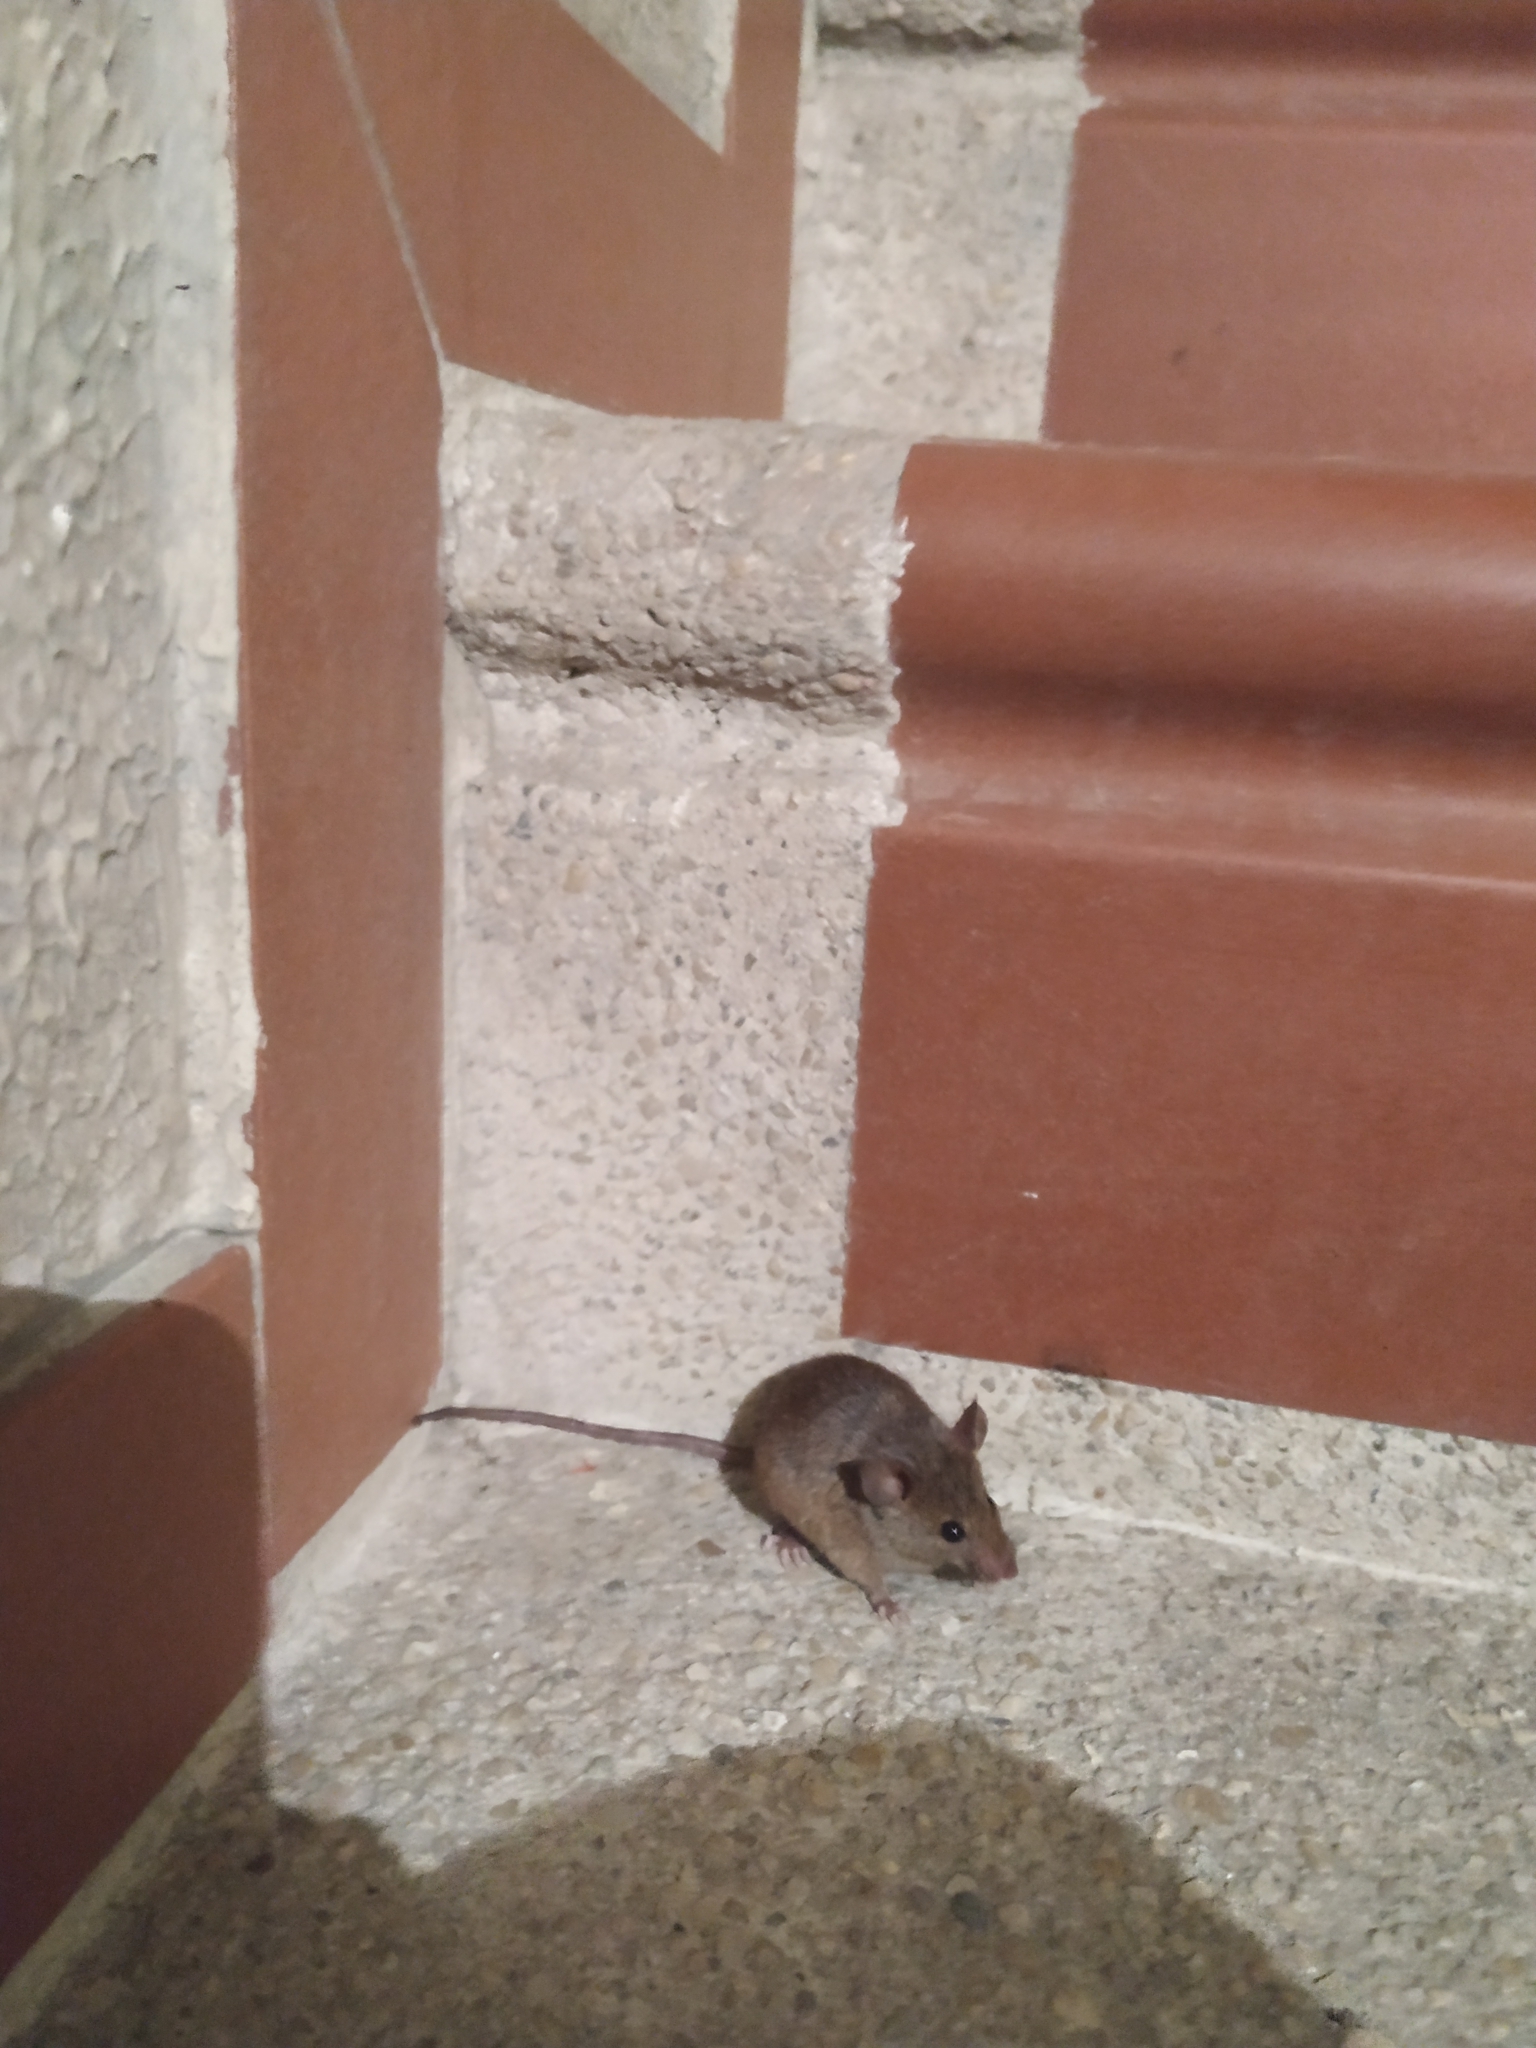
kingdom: Animalia
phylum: Chordata
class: Mammalia
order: Rodentia
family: Muridae
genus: Mus
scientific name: Mus musculus
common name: House mouse
